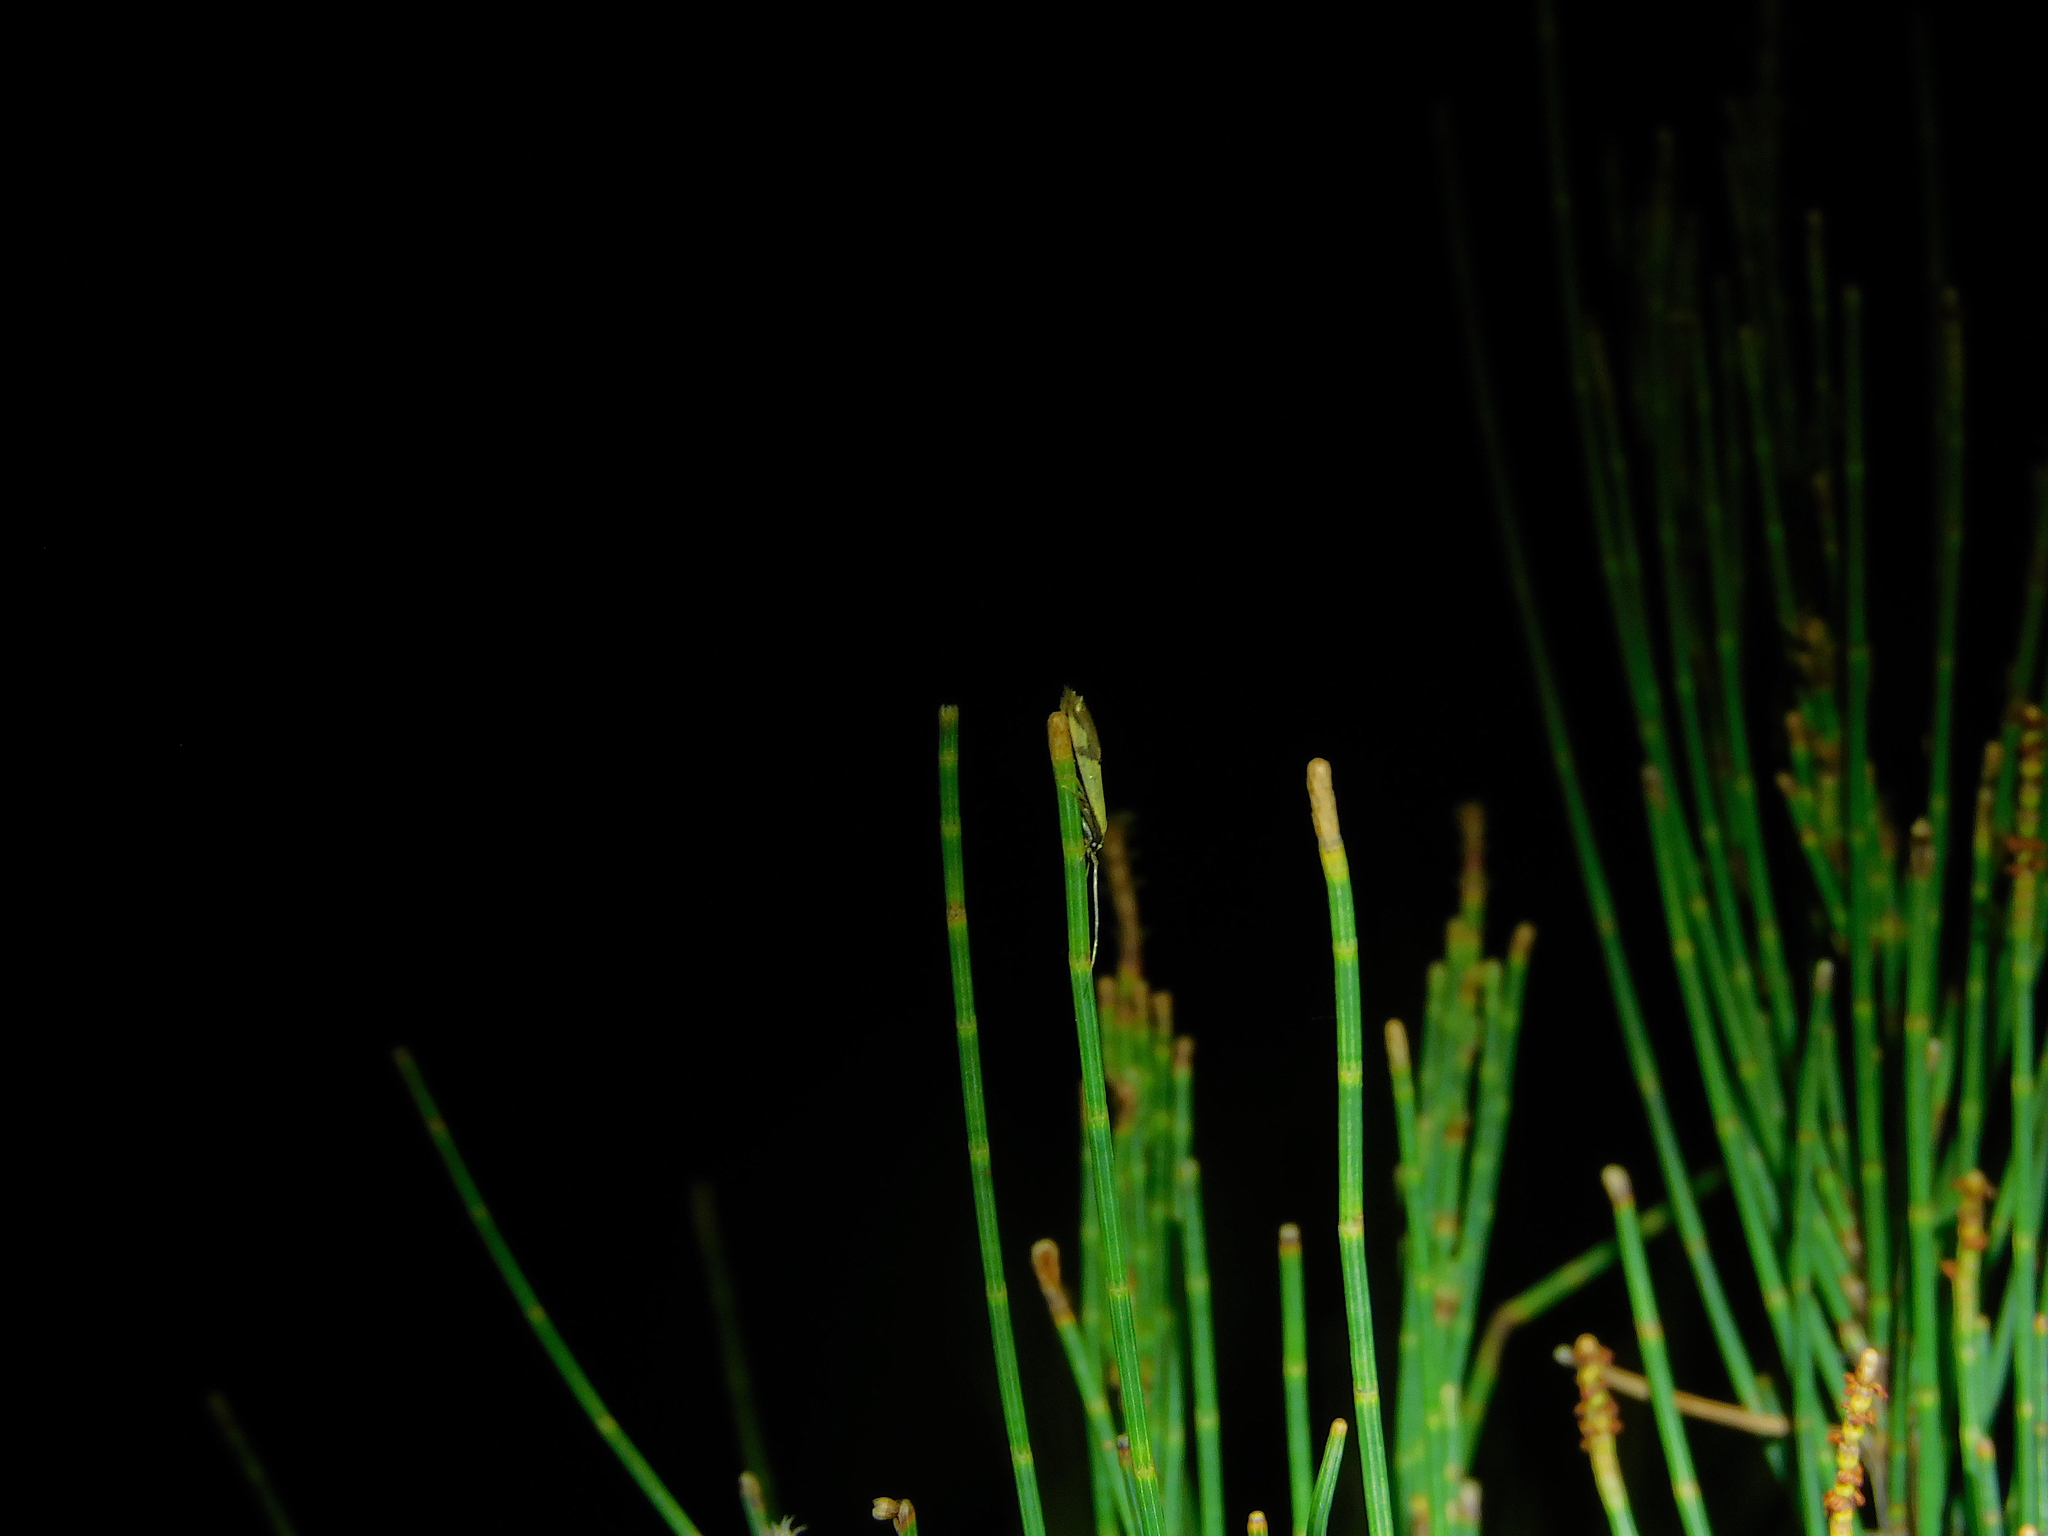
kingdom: Animalia
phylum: Arthropoda
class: Insecta
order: Lepidoptera
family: Lecithoceridae
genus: Crocanthes
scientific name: Crocanthes glycina
